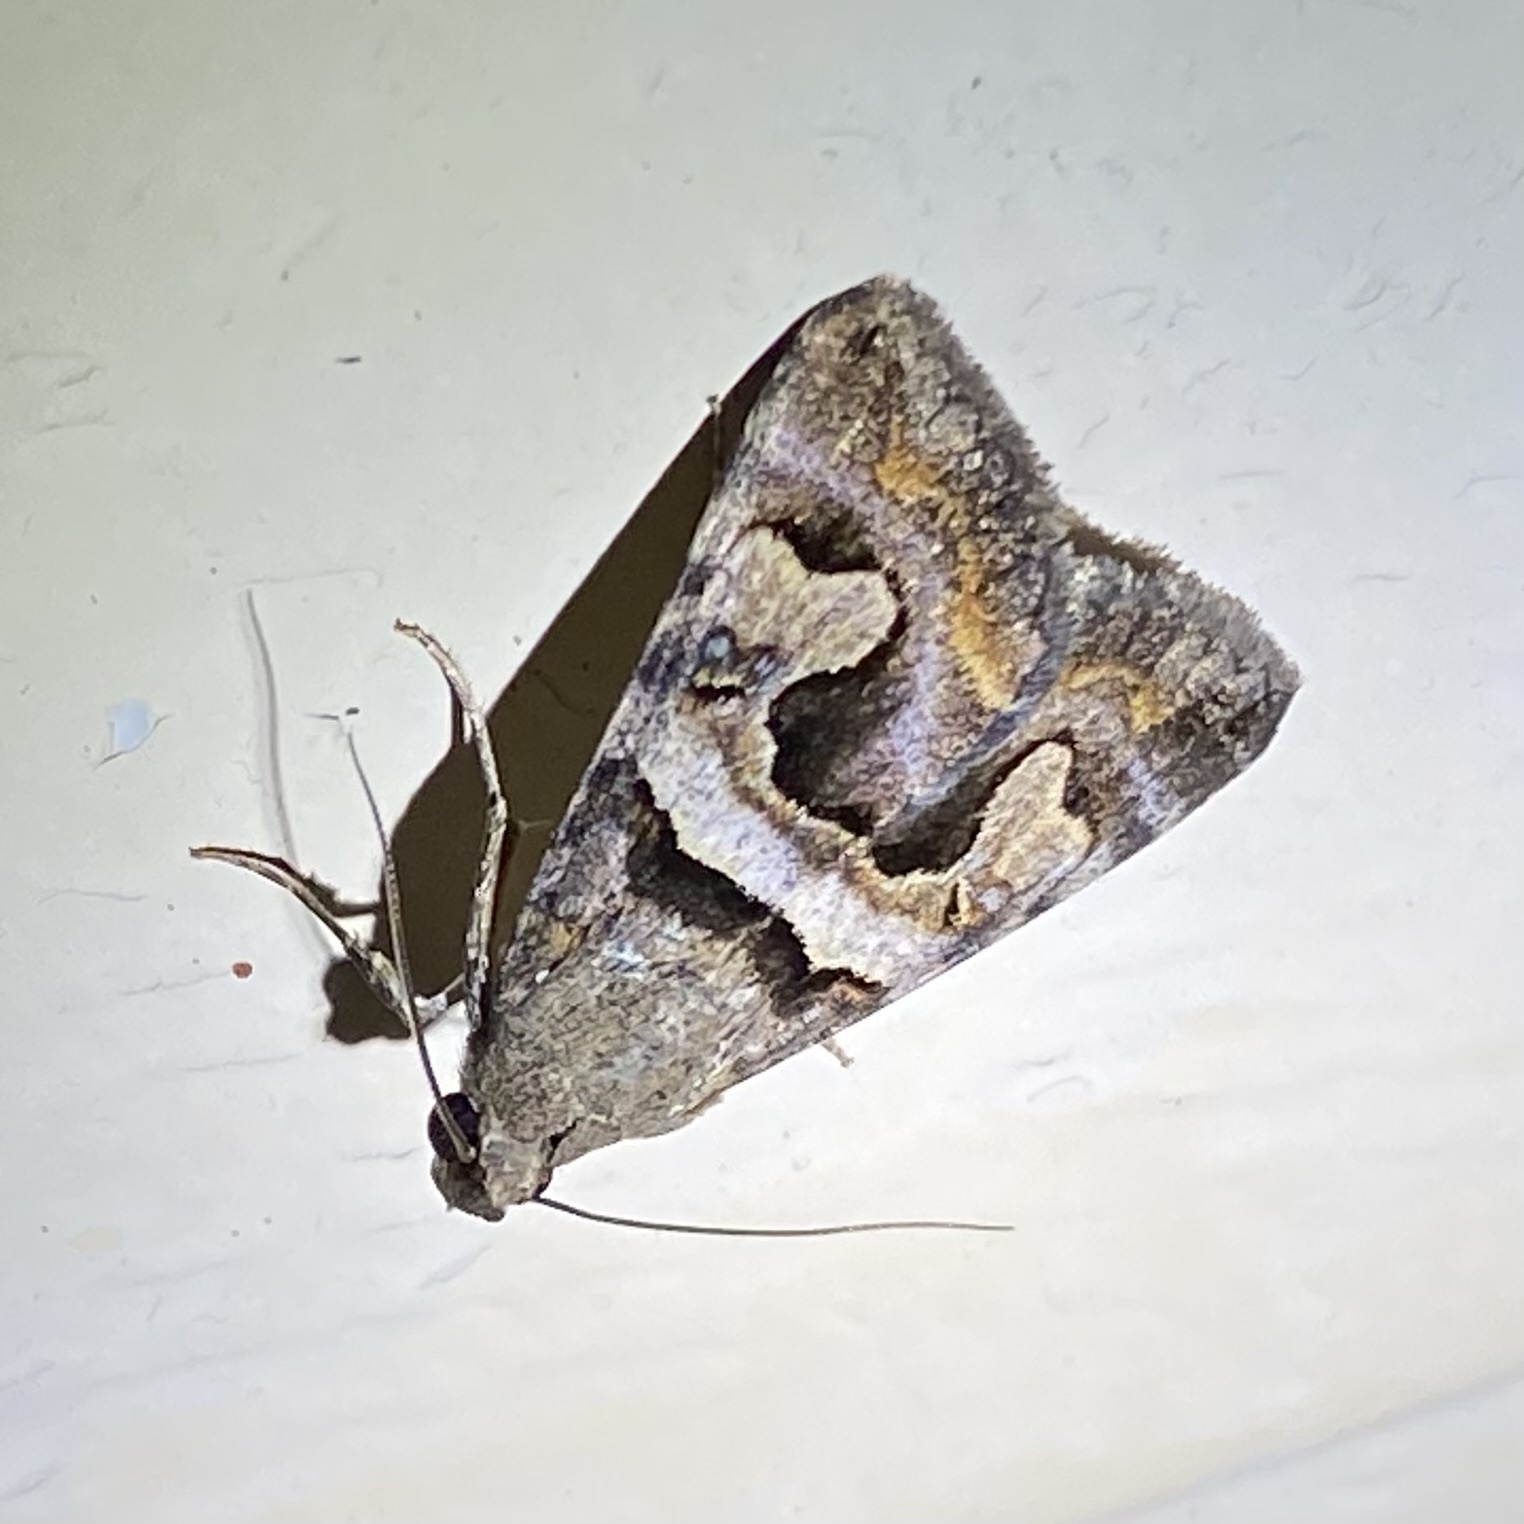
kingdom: Animalia
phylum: Arthropoda
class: Insecta
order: Lepidoptera
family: Erebidae
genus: Bulia
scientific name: Bulia deducta
